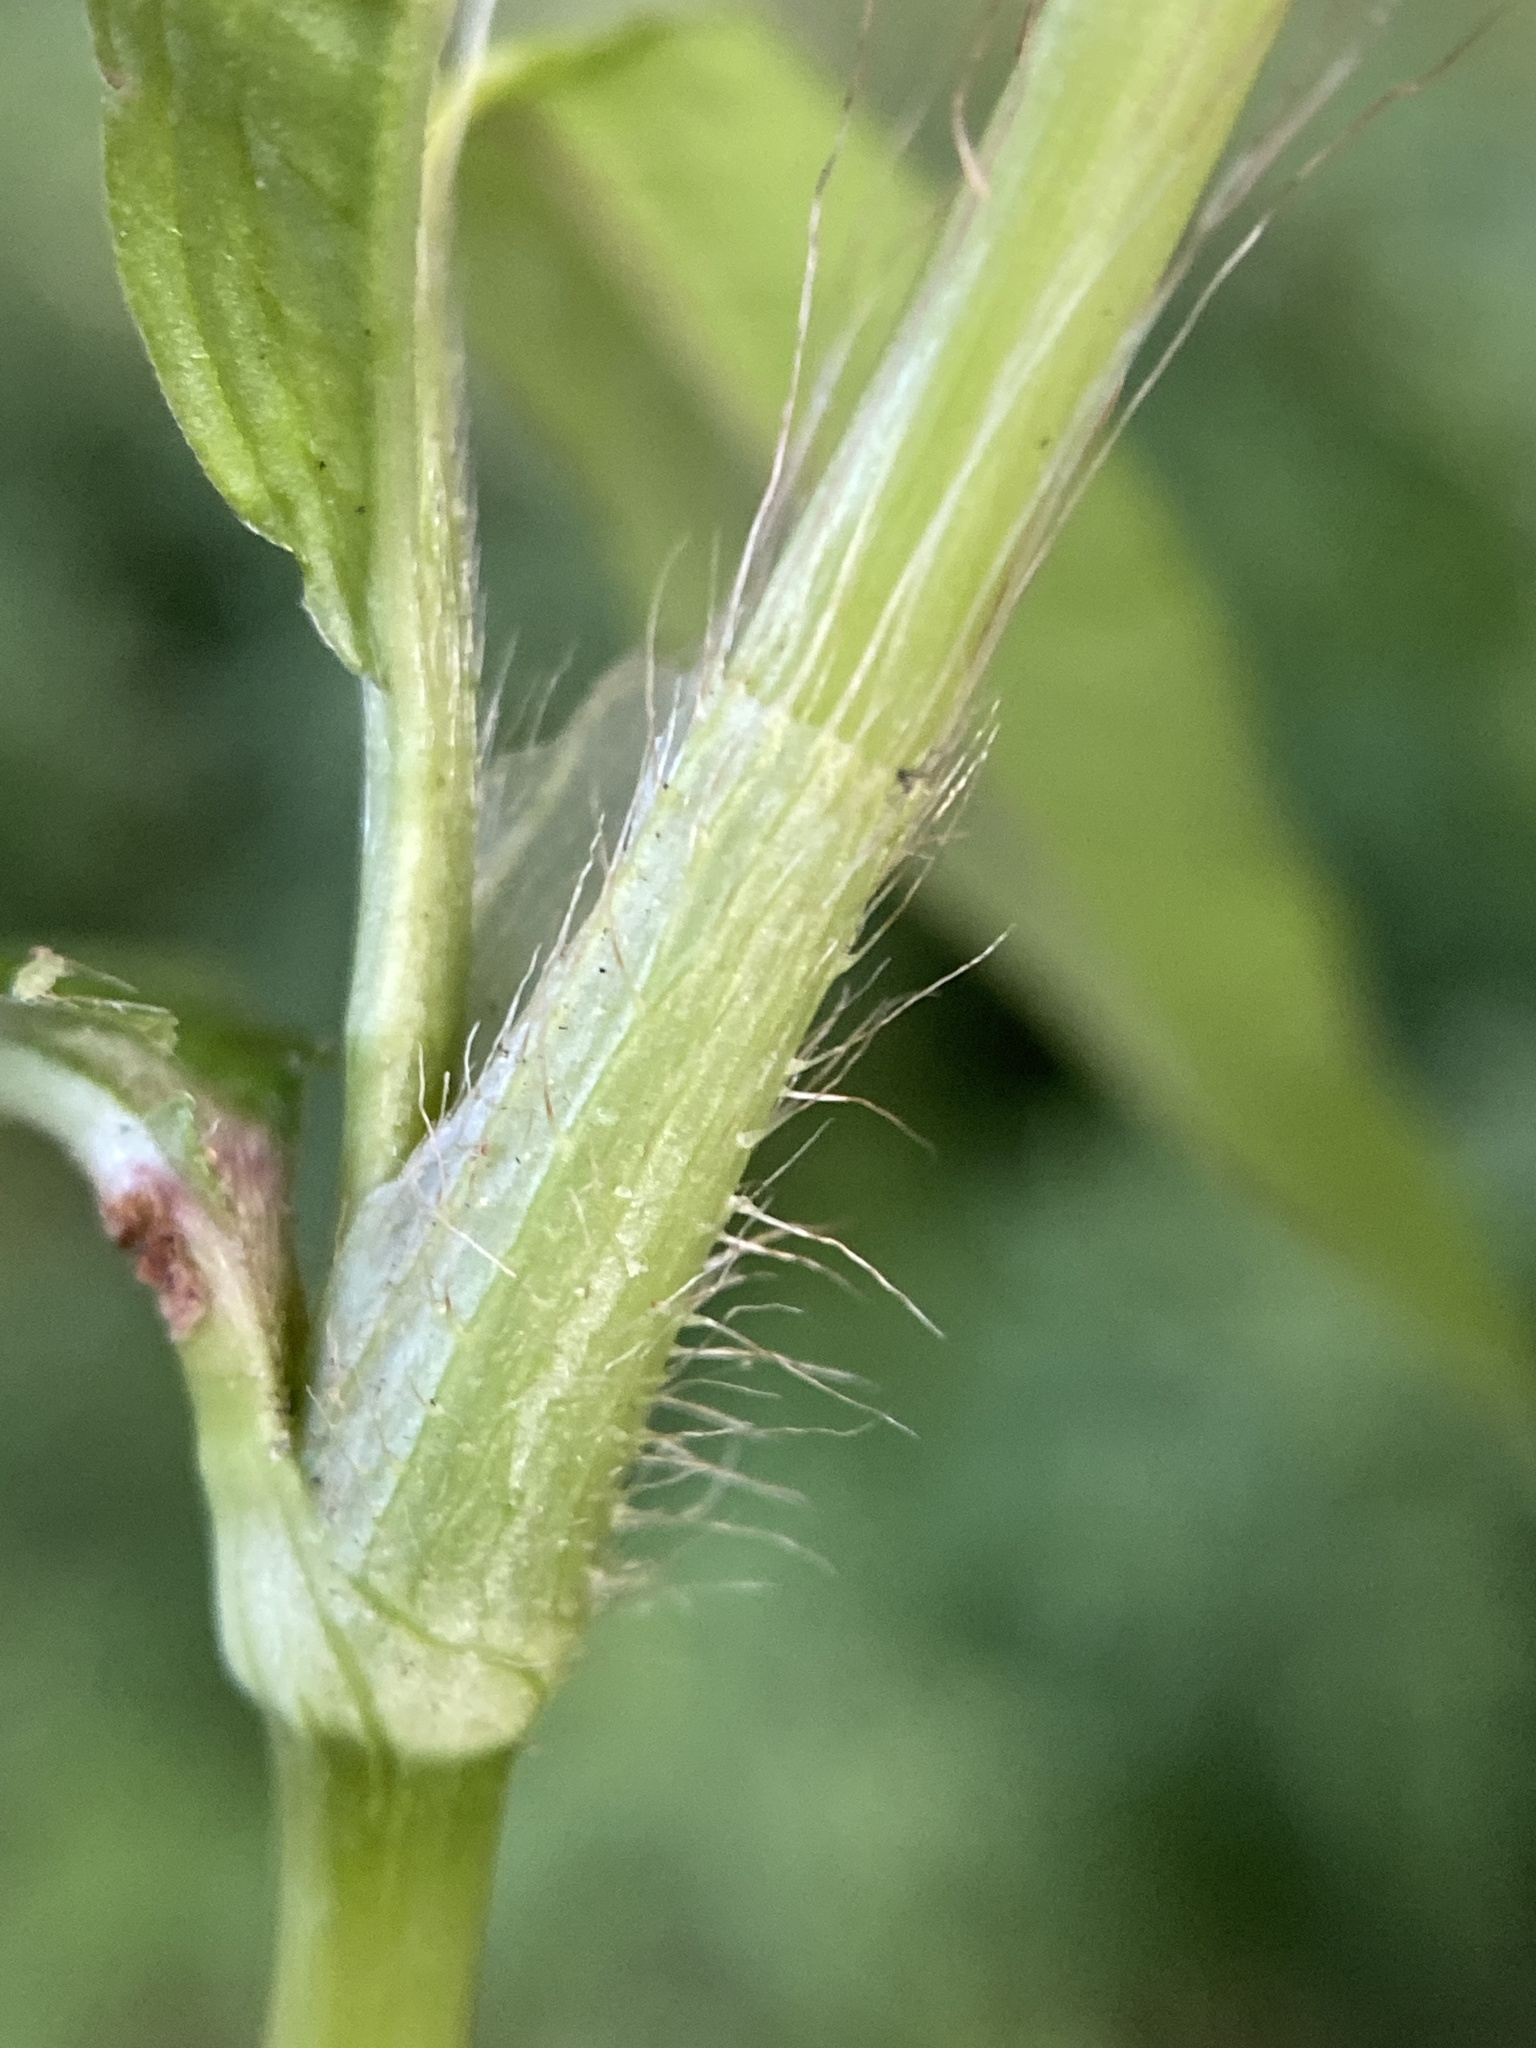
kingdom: Plantae
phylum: Tracheophyta
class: Magnoliopsida
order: Caryophyllales
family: Polygonaceae
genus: Persicaria
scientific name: Persicaria setacea
